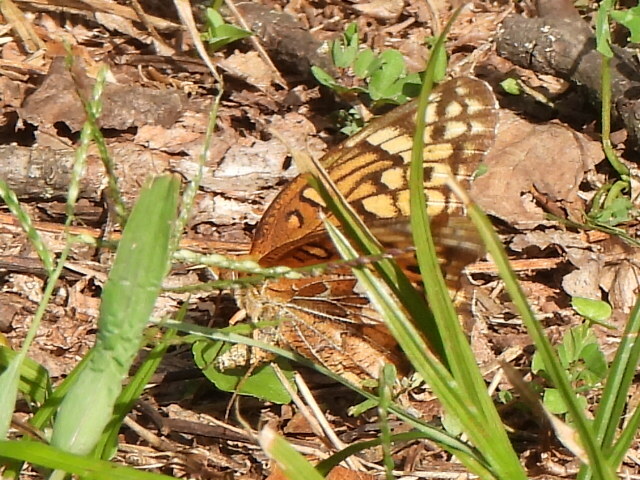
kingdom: Animalia
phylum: Arthropoda
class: Insecta
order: Lepidoptera
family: Nymphalidae
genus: Euptoieta
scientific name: Euptoieta claudia
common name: Variegated fritillary
